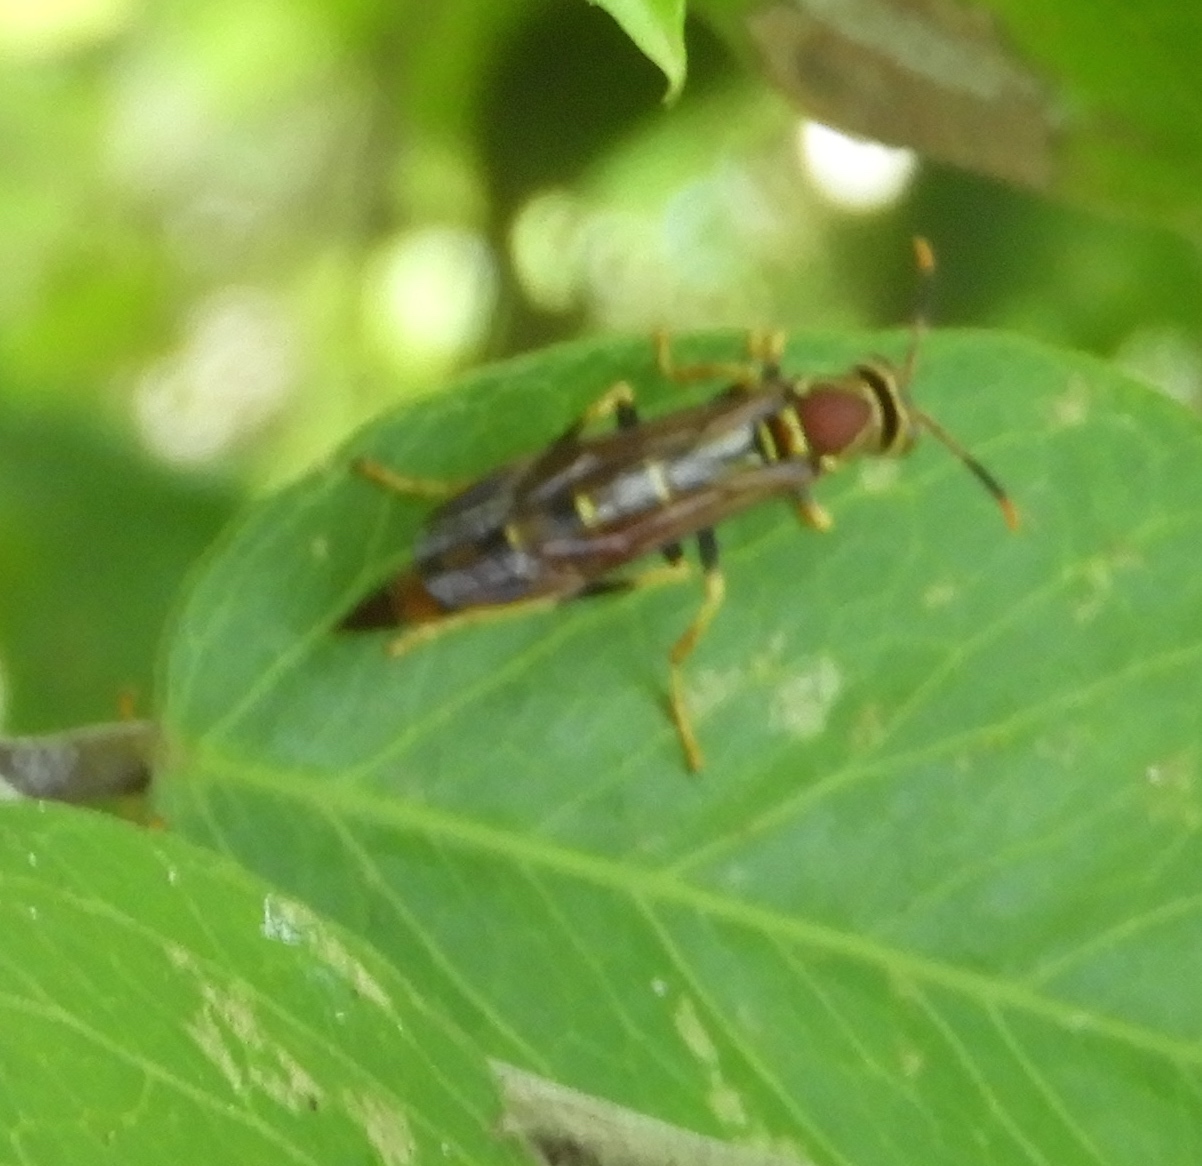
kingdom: Animalia
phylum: Arthropoda
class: Insecta
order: Hymenoptera
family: Eumenidae
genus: Polistes
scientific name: Polistes instabilis
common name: Unstable paper wasp
